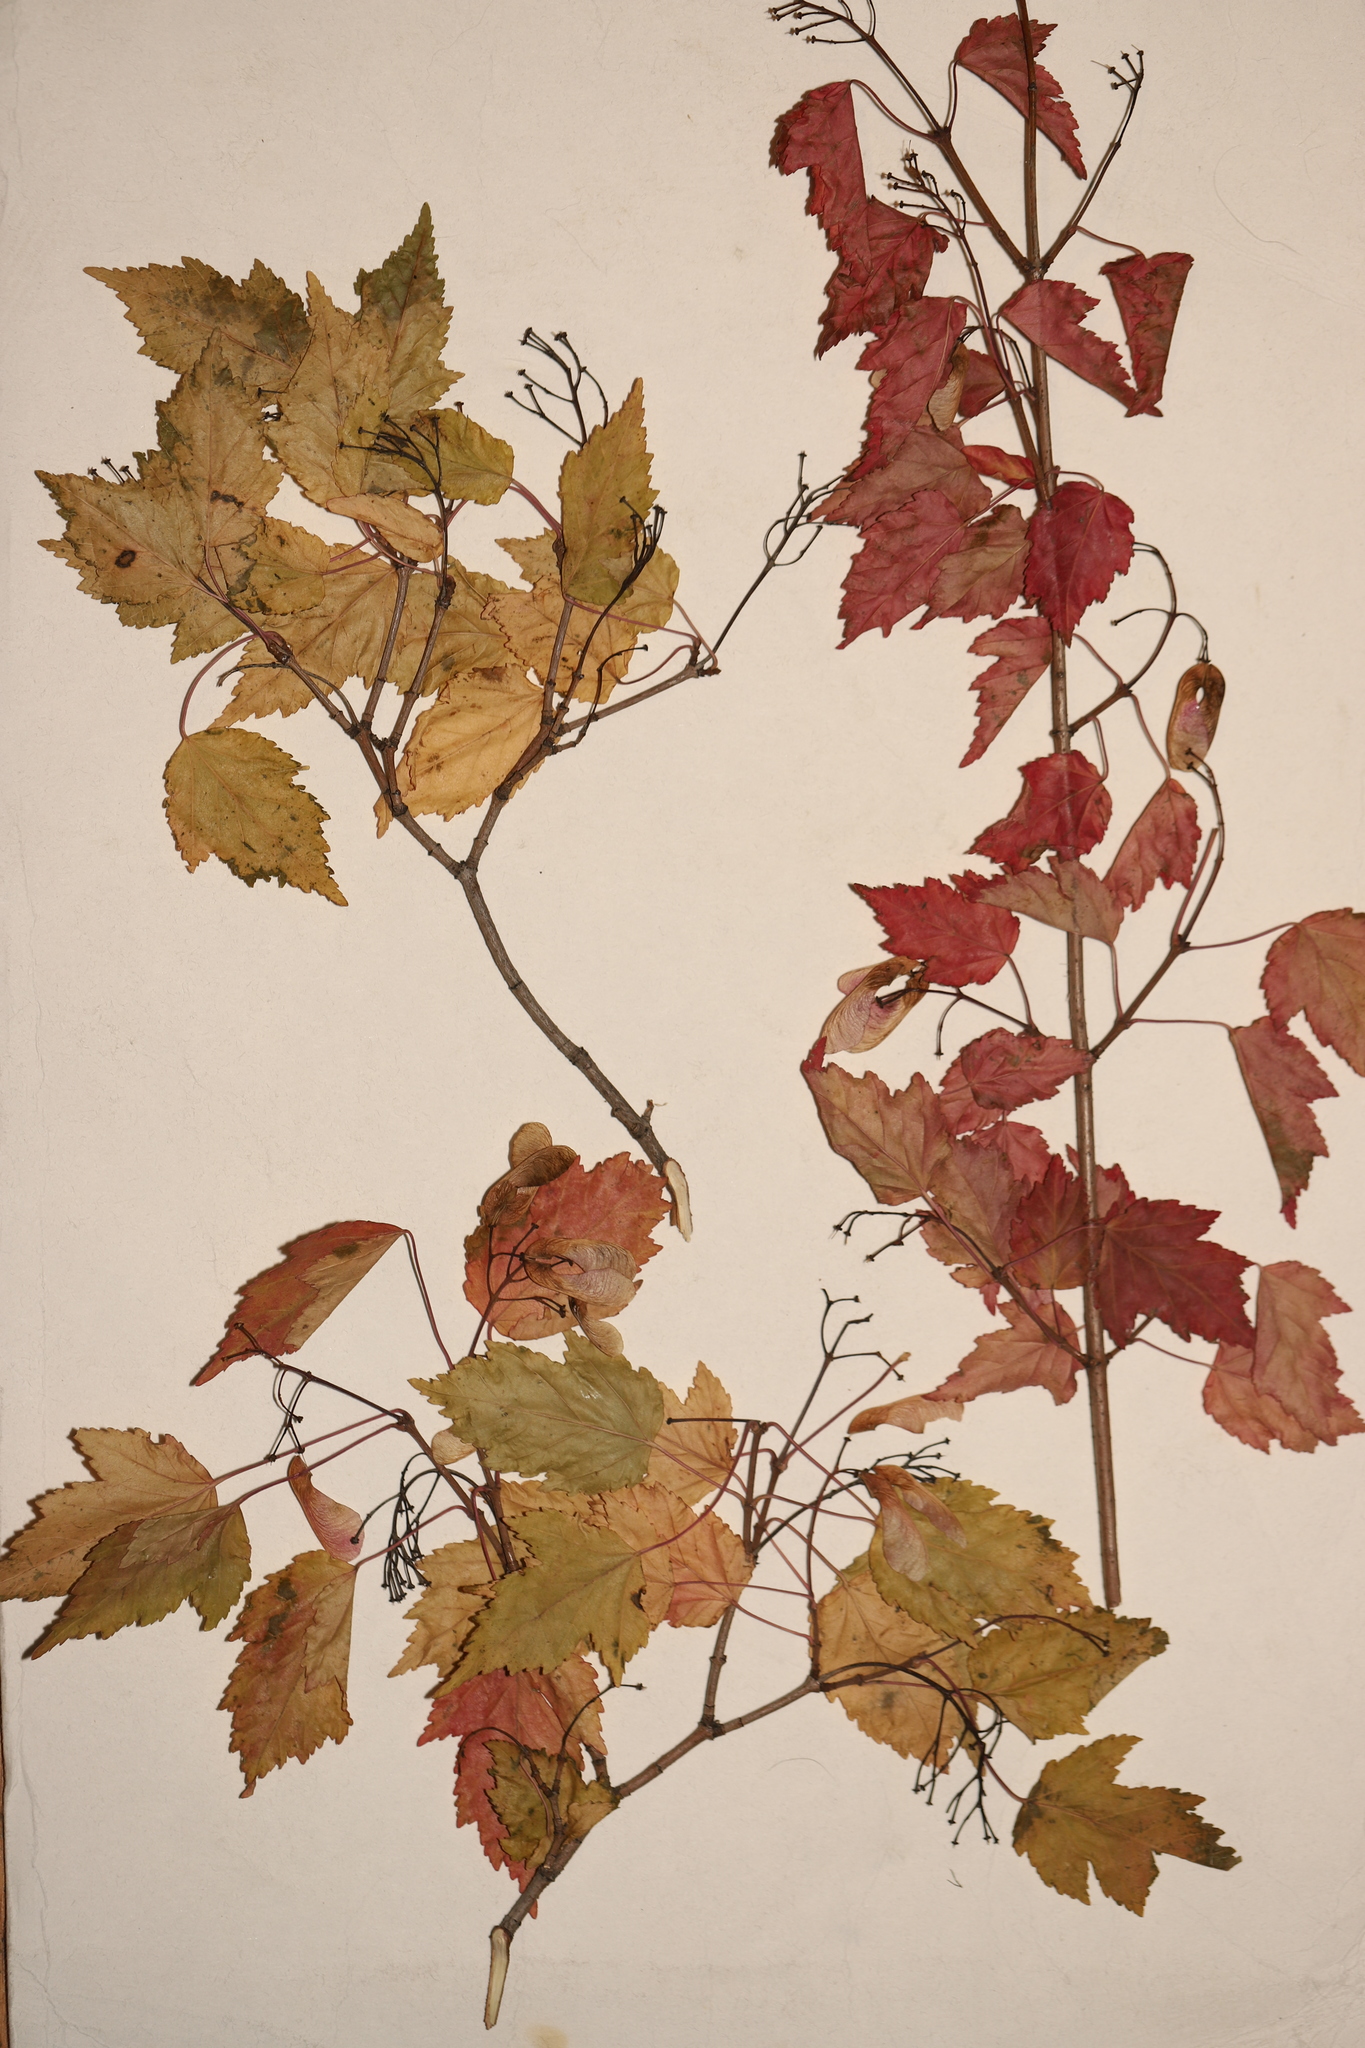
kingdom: Plantae
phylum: Tracheophyta
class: Magnoliopsida
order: Sapindales
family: Sapindaceae
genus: Acer
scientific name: Acer tataricum
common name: Tartar maple
